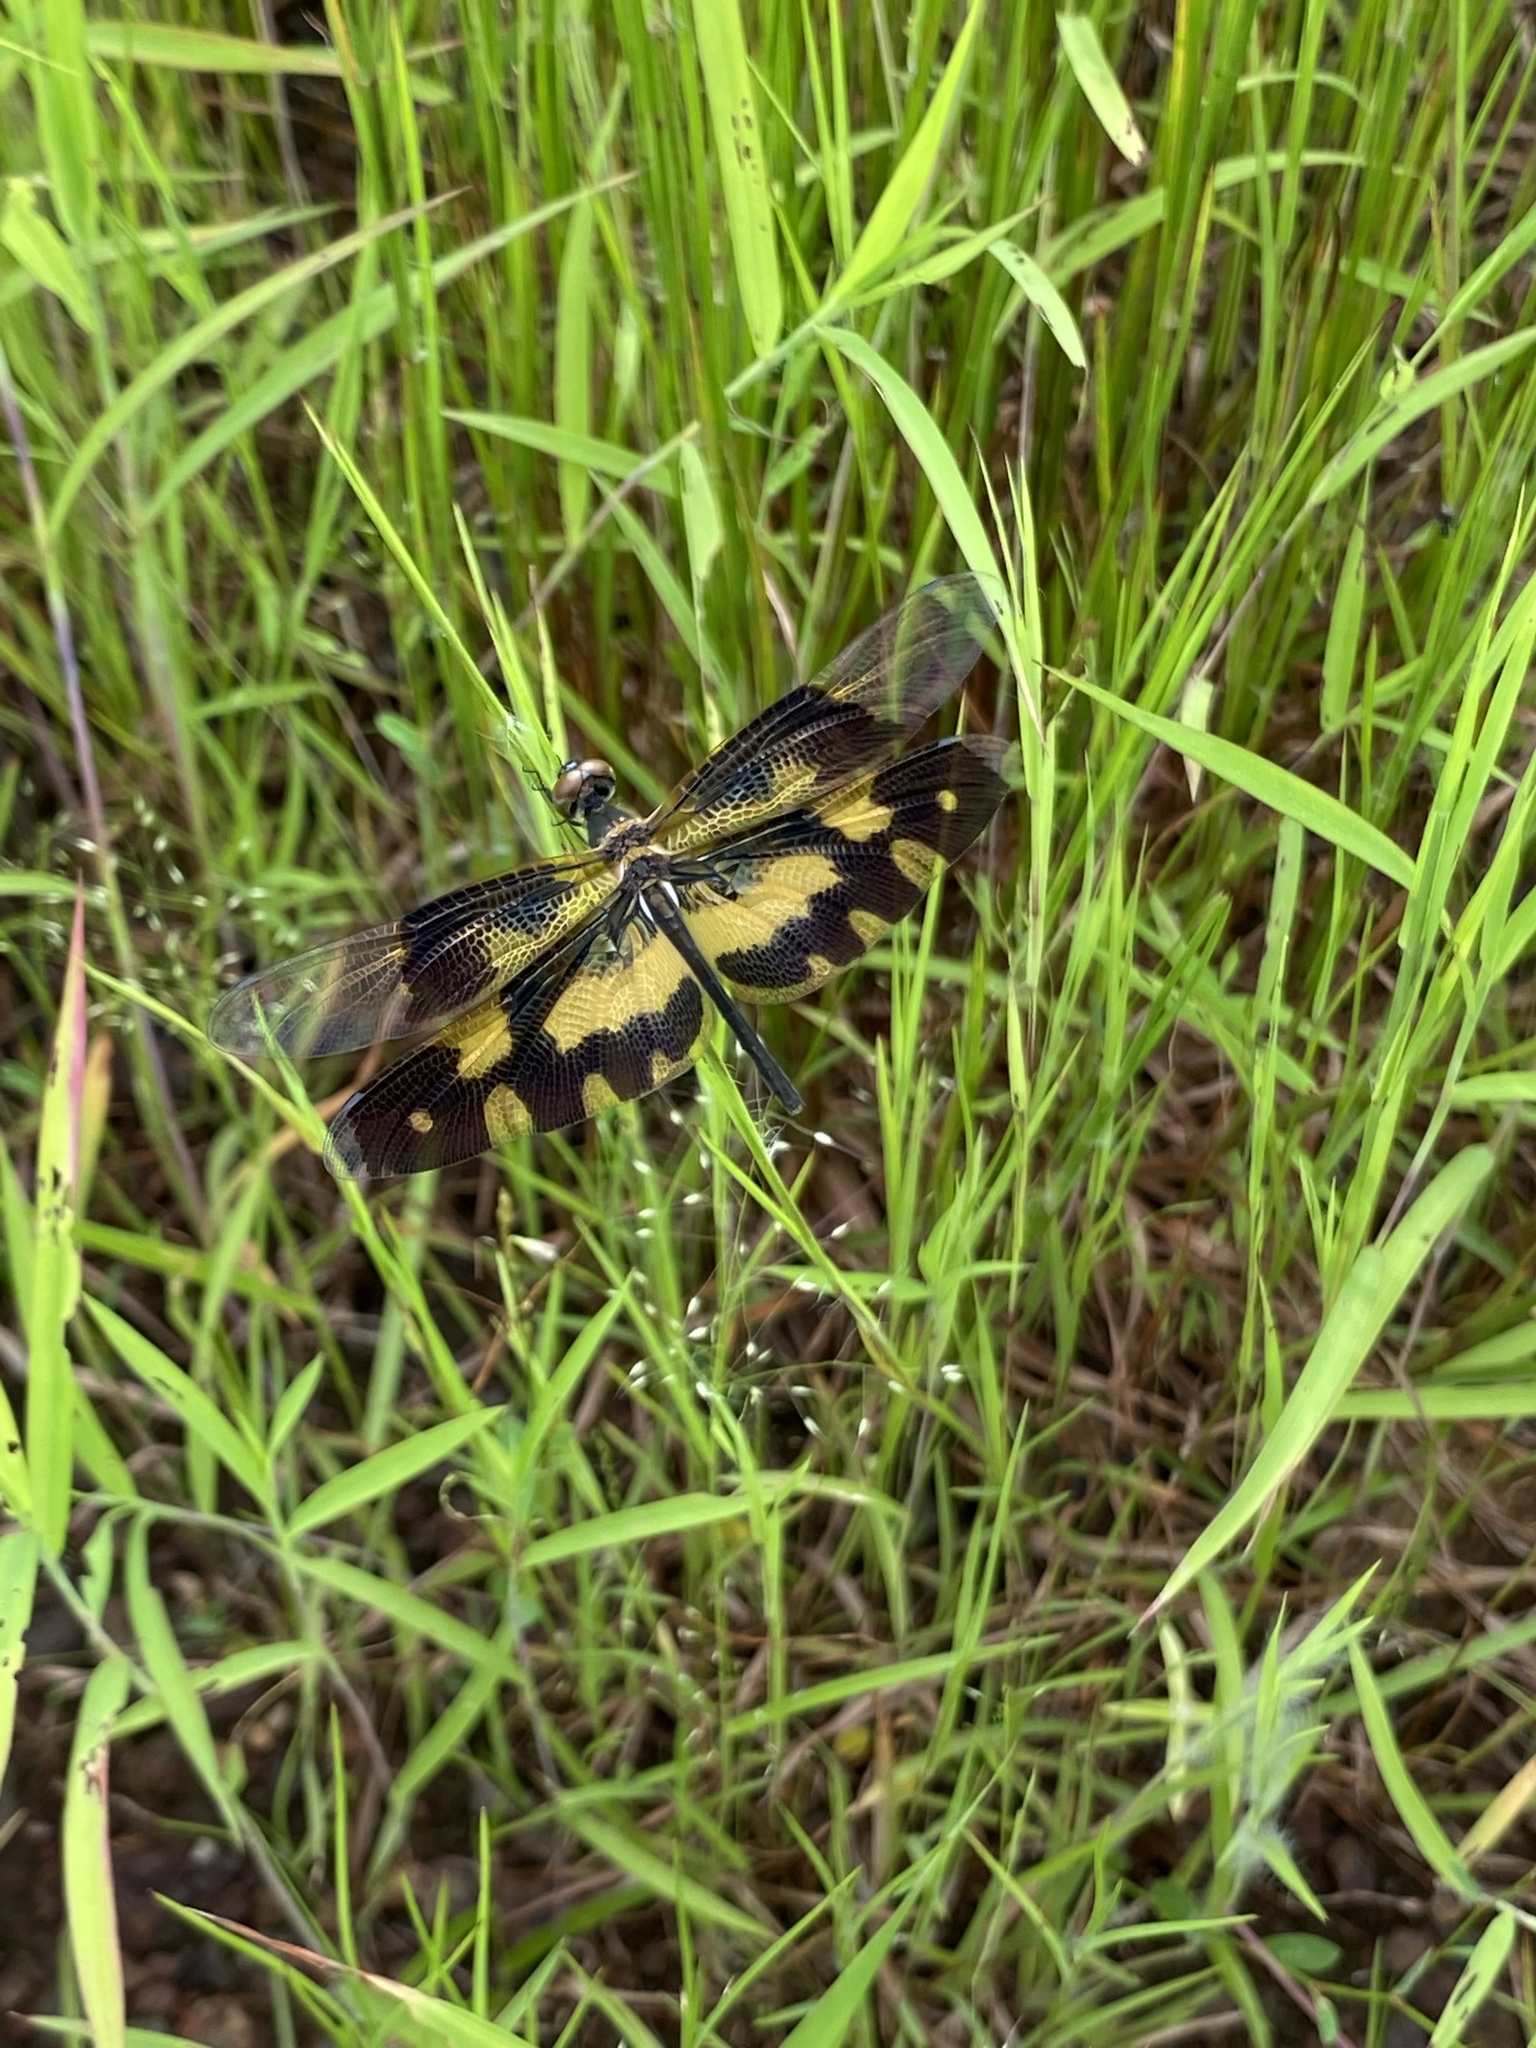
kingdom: Animalia
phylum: Arthropoda
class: Insecta
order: Odonata
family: Libellulidae
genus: Rhyothemis
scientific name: Rhyothemis variegata
